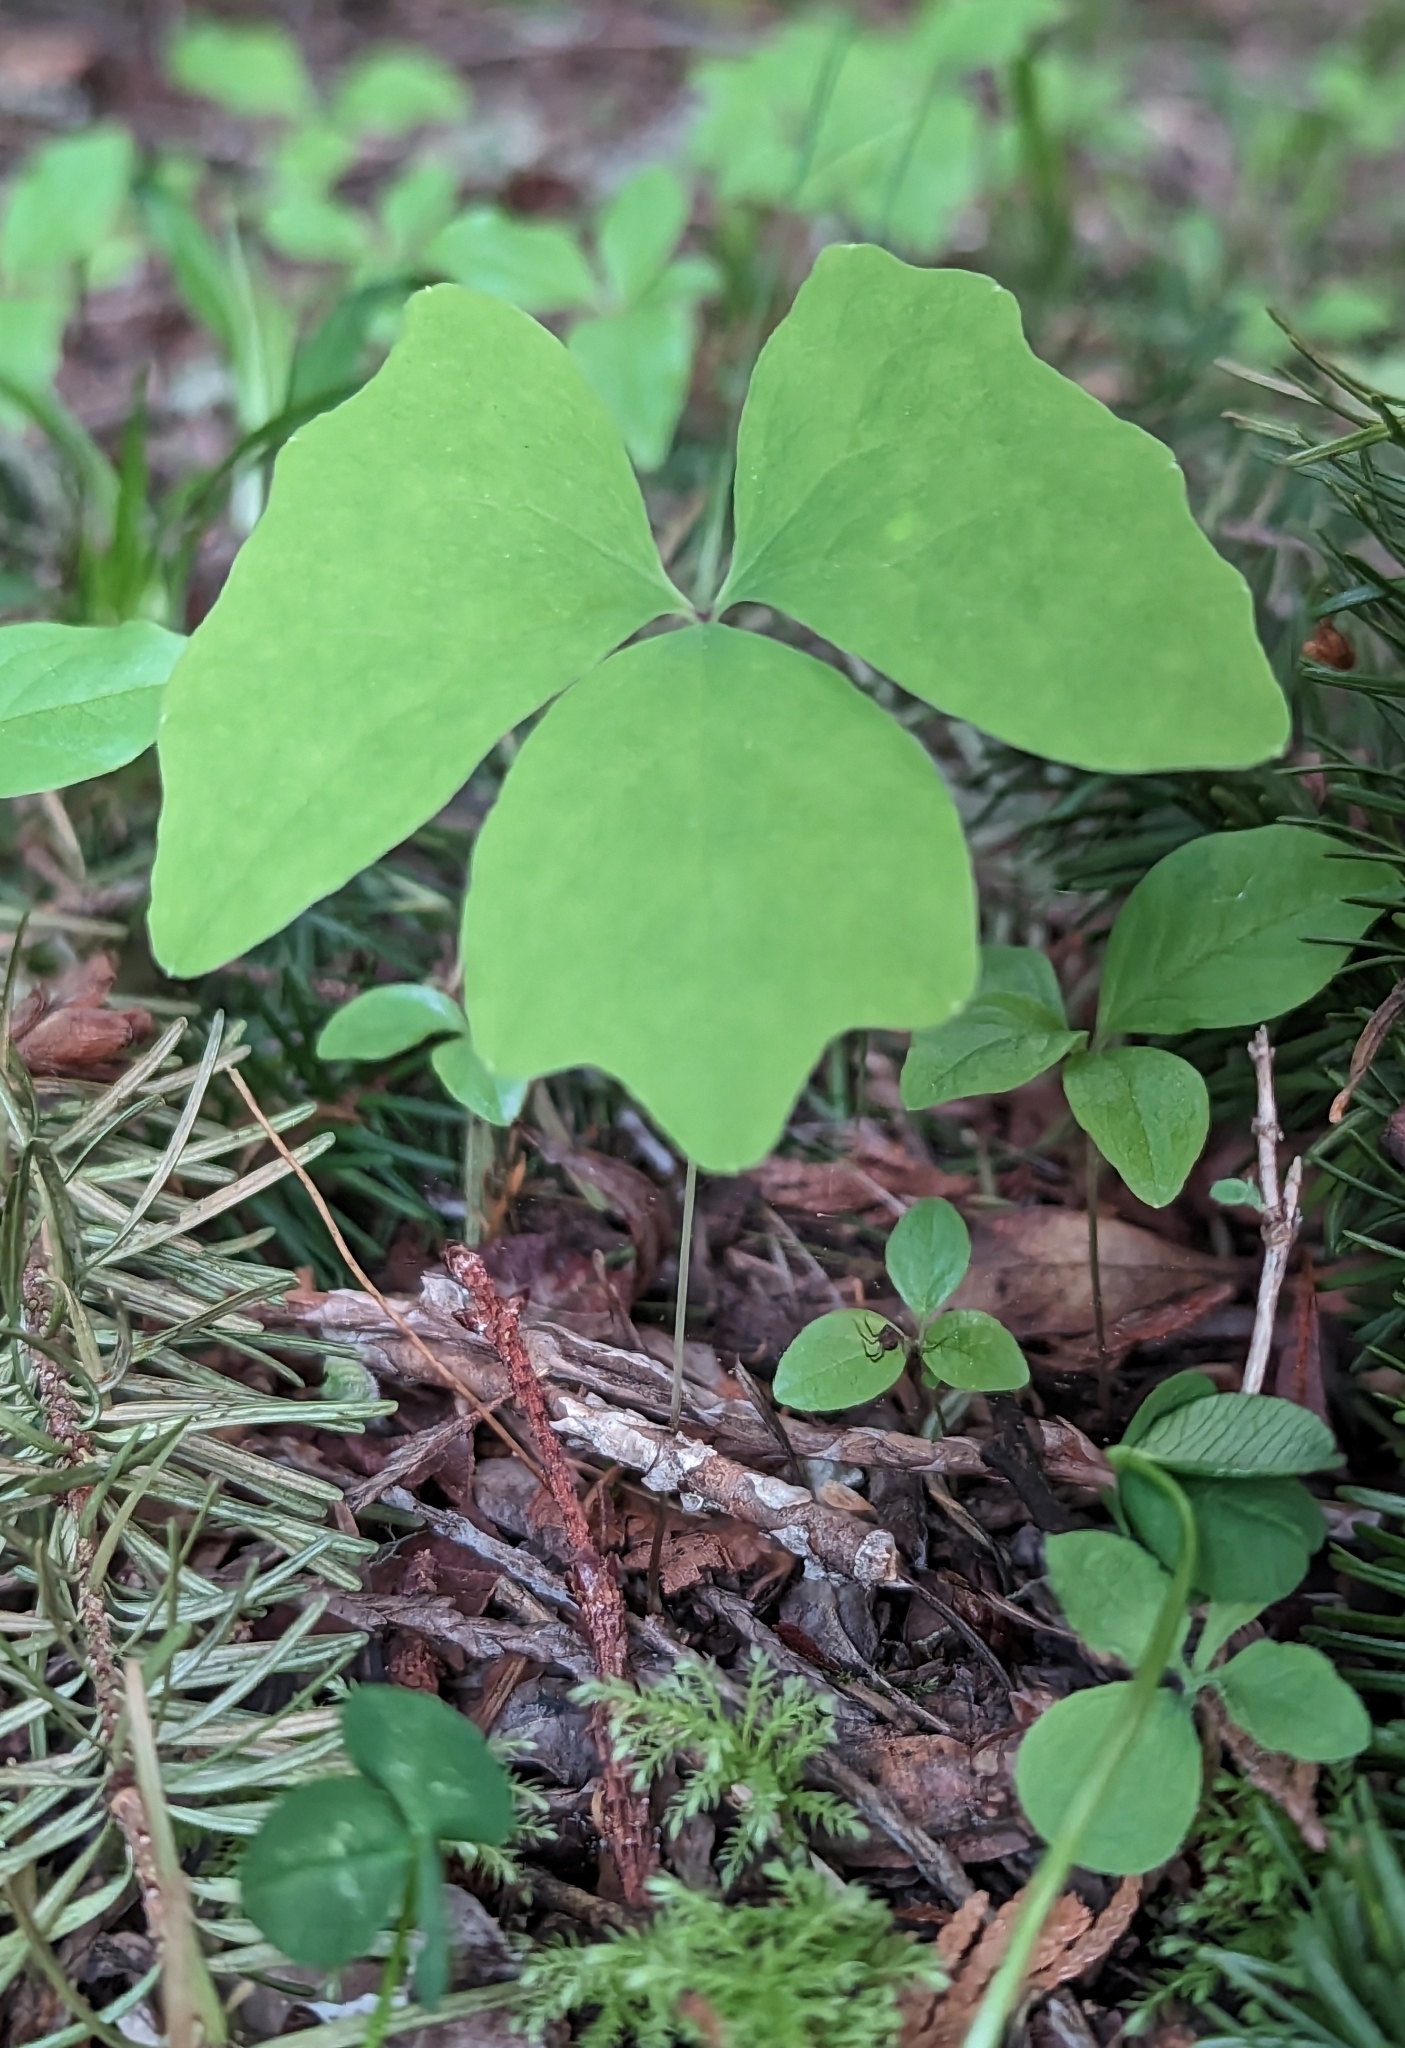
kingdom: Plantae
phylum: Tracheophyta
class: Magnoliopsida
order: Ranunculales
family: Berberidaceae
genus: Achlys
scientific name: Achlys triphylla
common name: Vanilla-leaf
